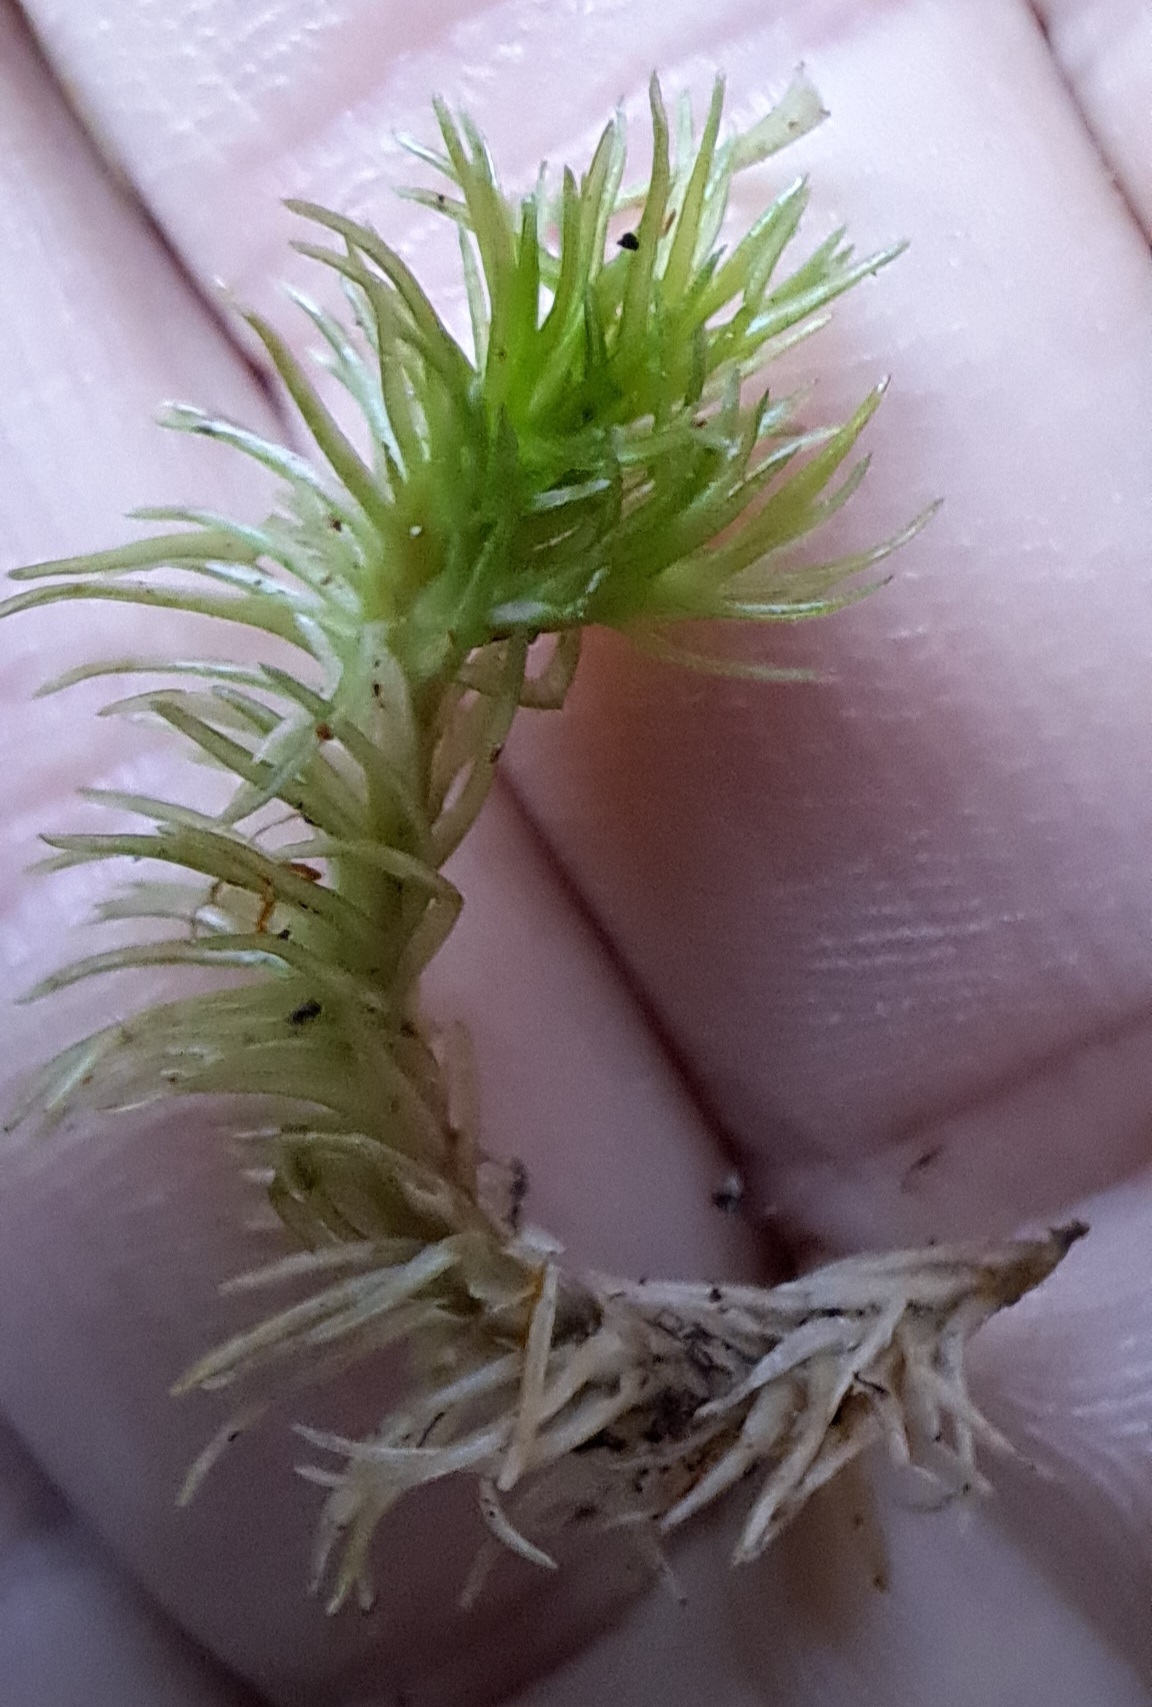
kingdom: Plantae
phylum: Bryophyta
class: Bryopsida
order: Dicranales
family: Leucobryaceae
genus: Leucobryum
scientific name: Leucobryum glaucum
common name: Large white-moss
